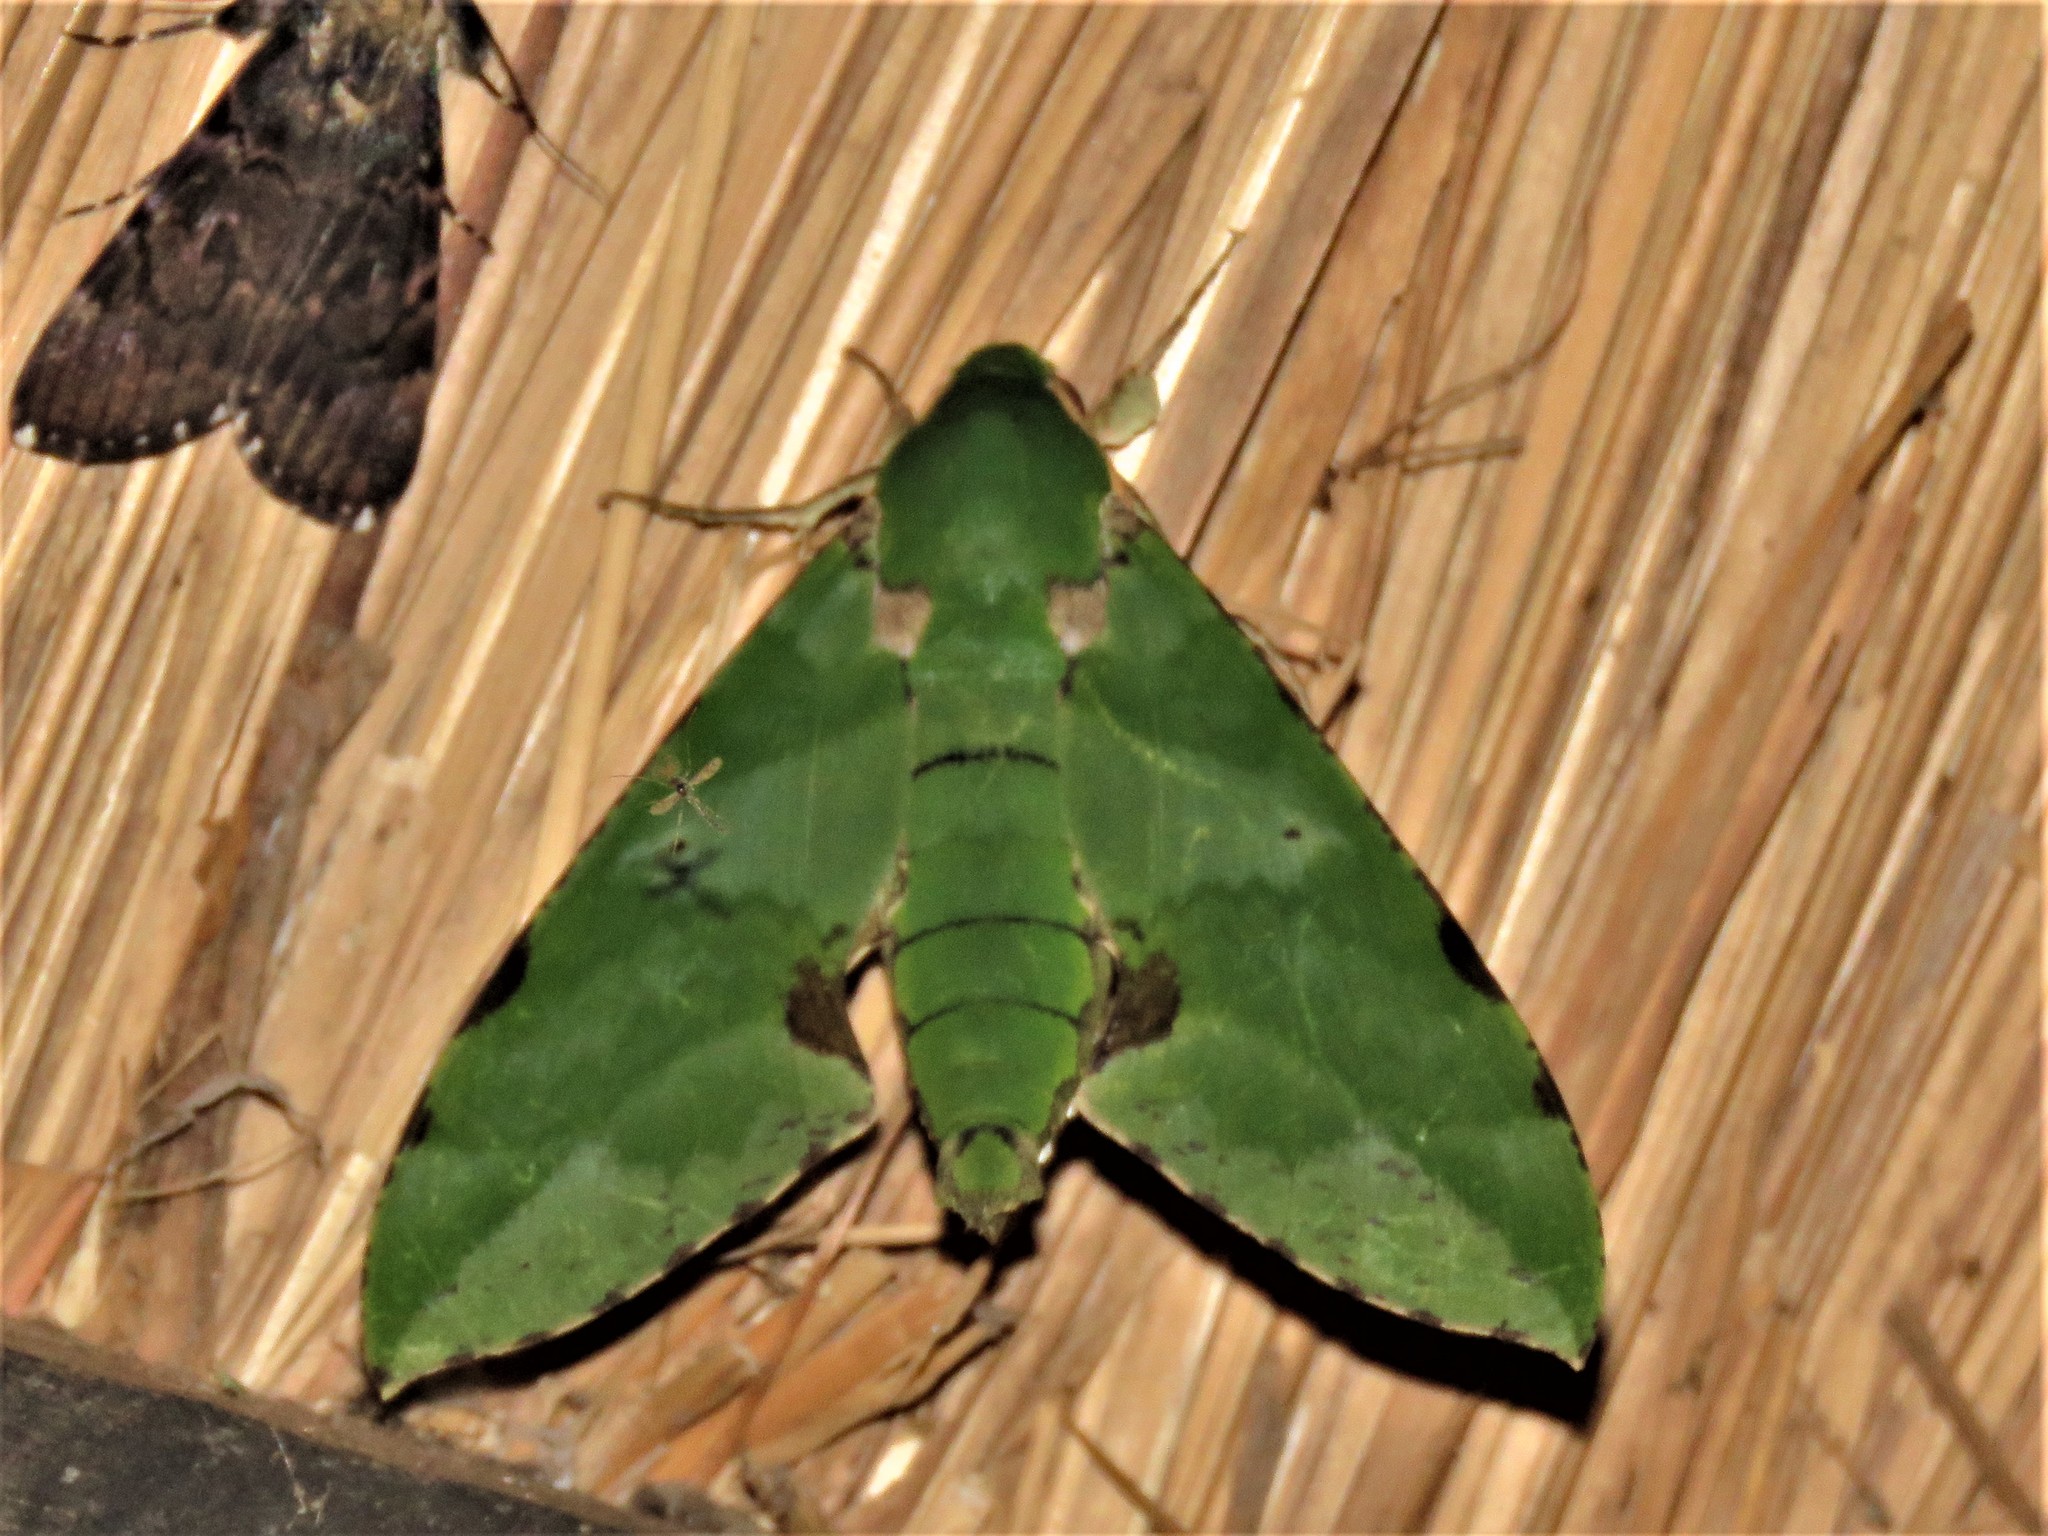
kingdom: Animalia
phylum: Arthropoda
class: Insecta
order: Lepidoptera
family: Sphingidae
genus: Euchloron
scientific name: Euchloron megaera
